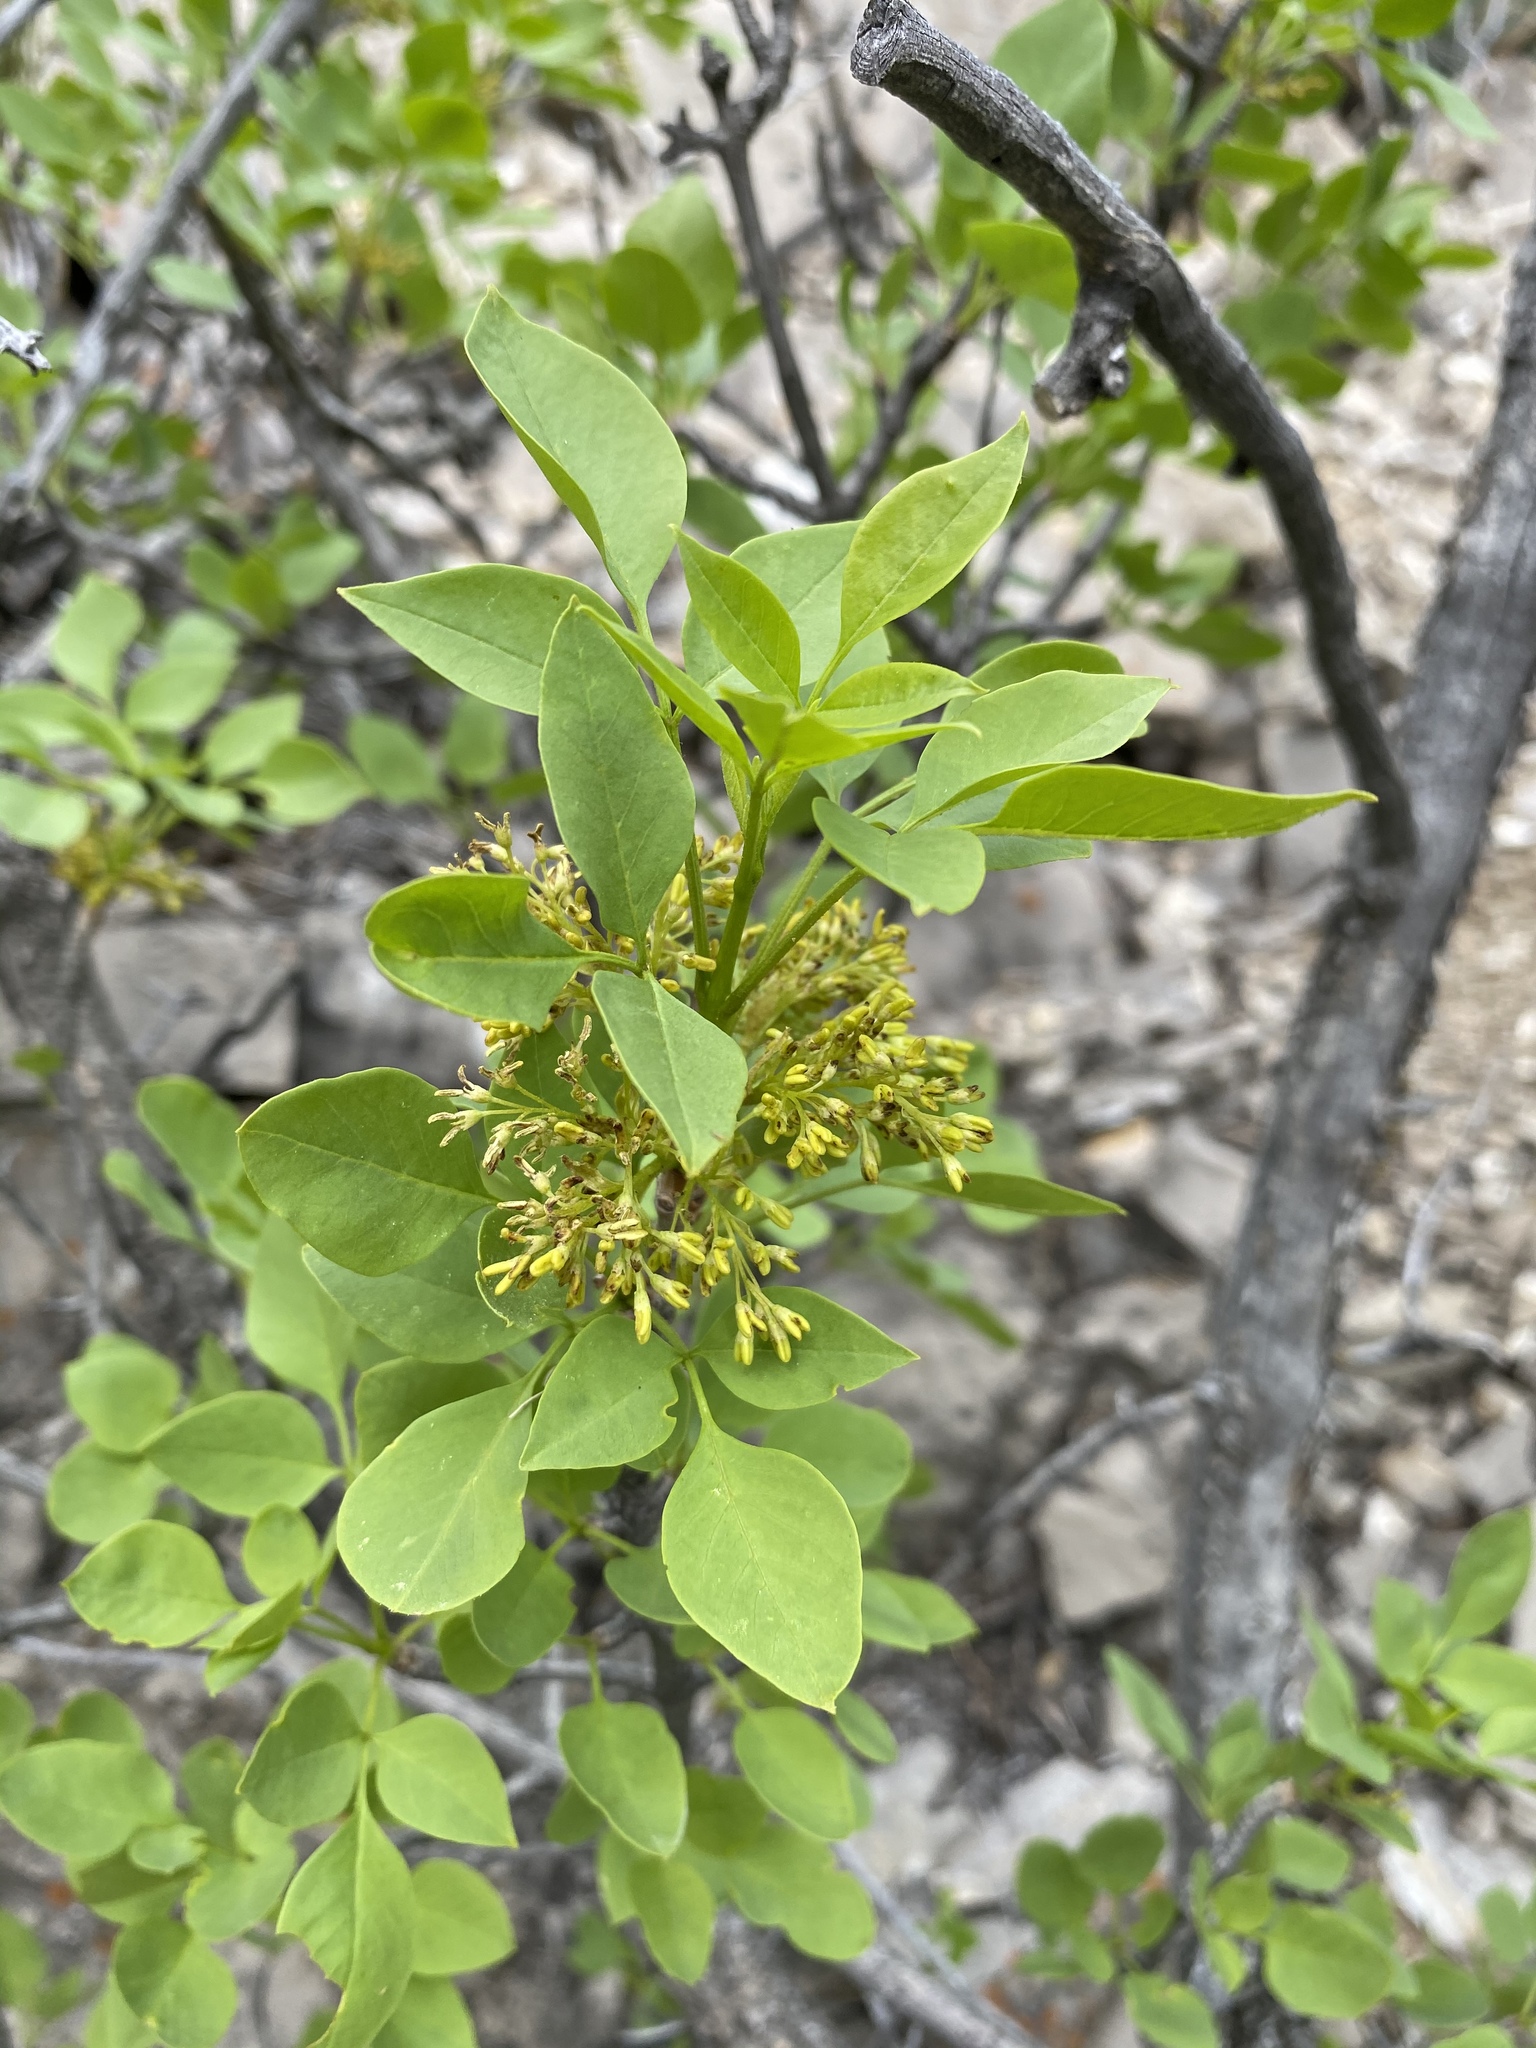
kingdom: Plantae
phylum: Tracheophyta
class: Magnoliopsida
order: Lamiales
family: Oleaceae
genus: Fraxinus
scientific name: Fraxinus anomala
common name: Utah ash
